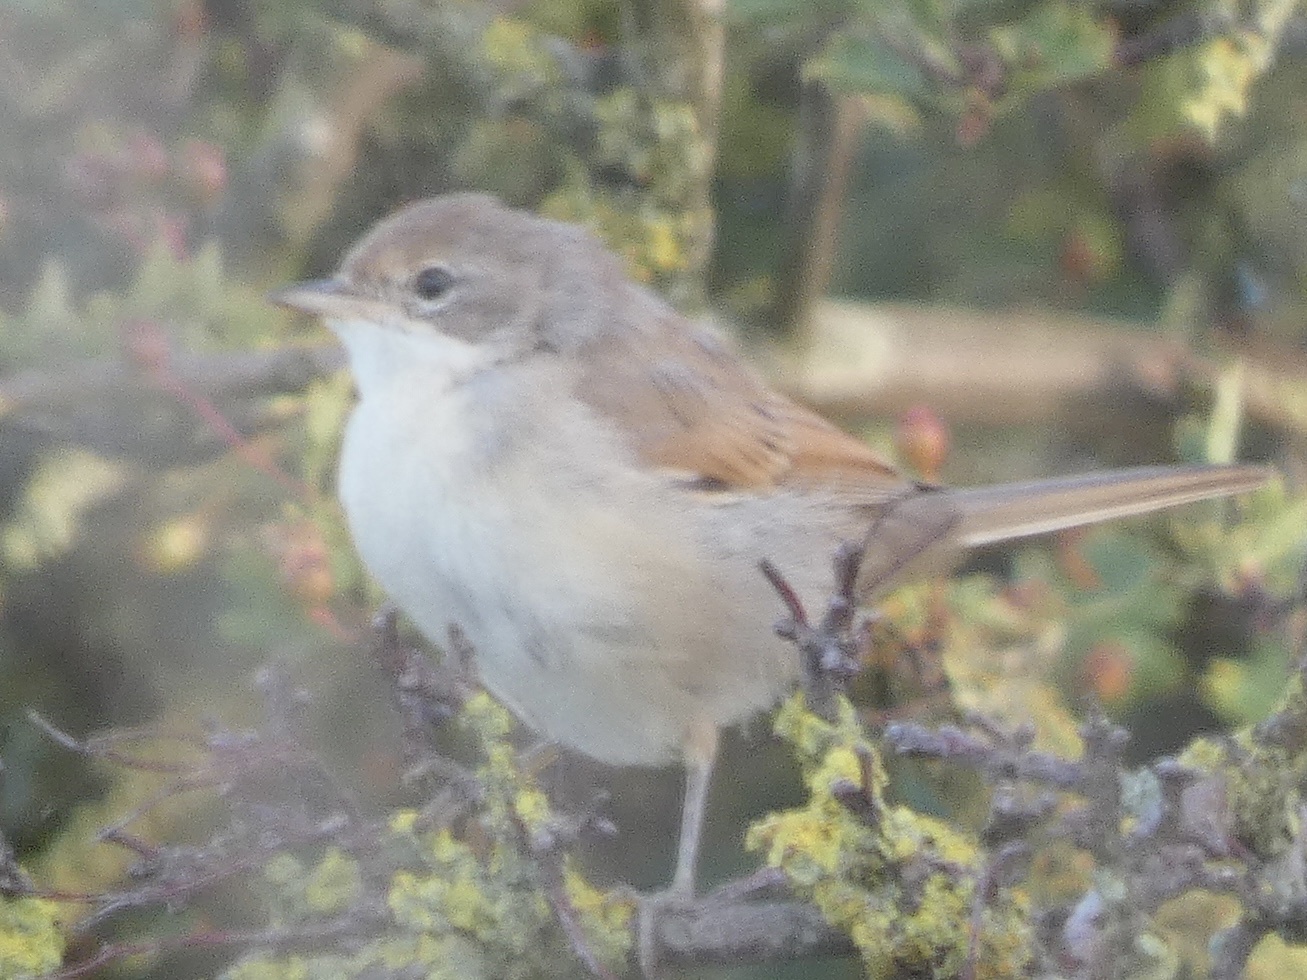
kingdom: Animalia
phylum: Chordata
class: Aves
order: Passeriformes
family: Sylviidae
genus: Sylvia
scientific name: Sylvia communis
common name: Common whitethroat
